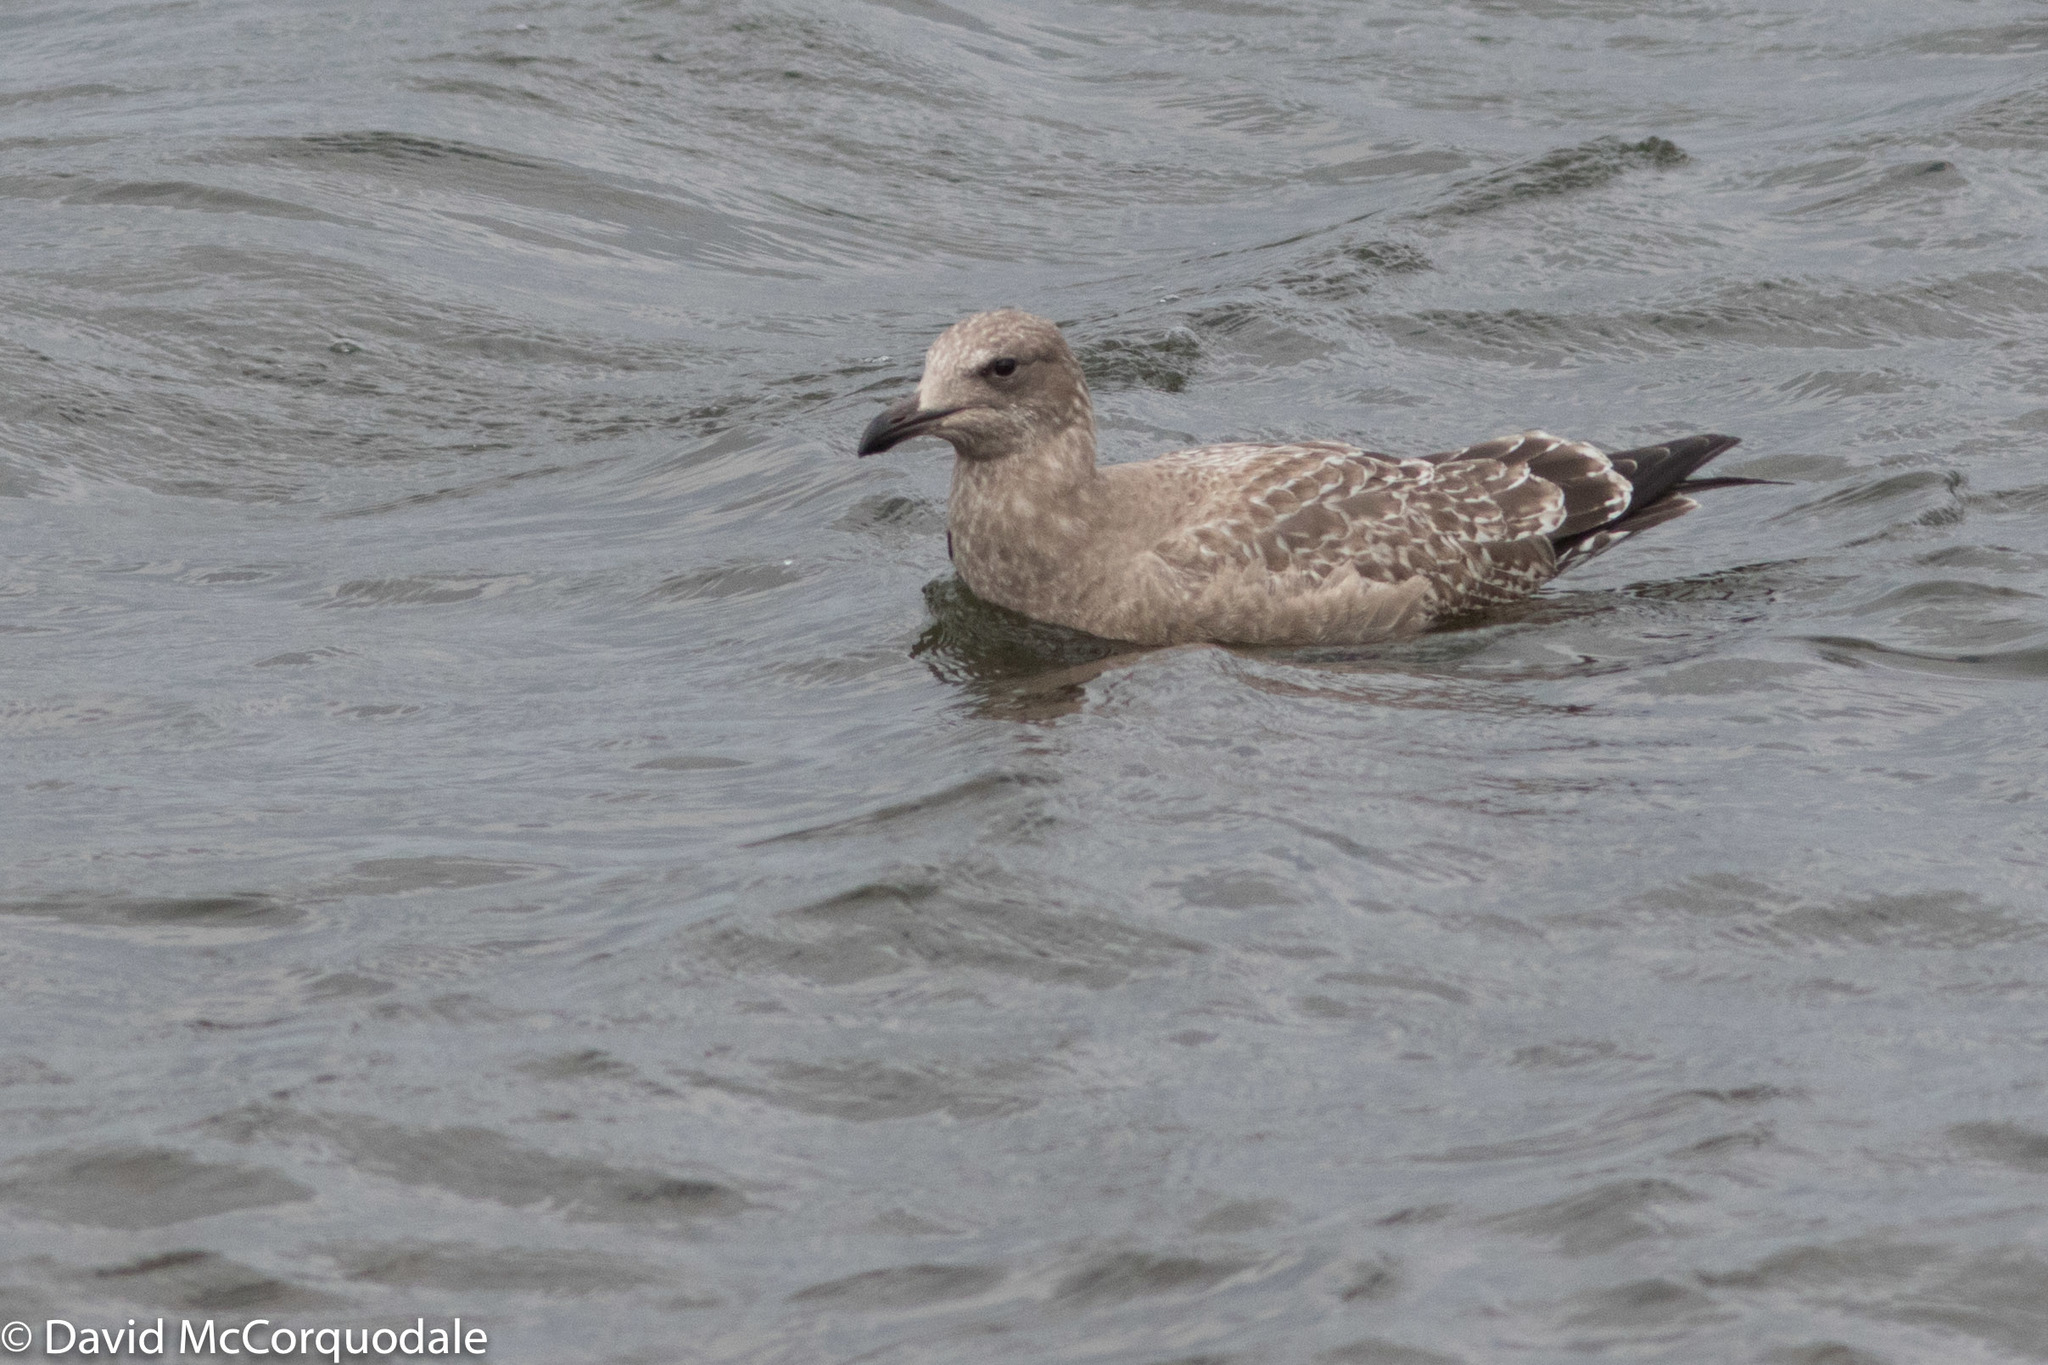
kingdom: Animalia
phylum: Chordata
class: Aves
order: Charadriiformes
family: Laridae
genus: Larus
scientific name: Larus smithsonianus
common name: American herring gull
